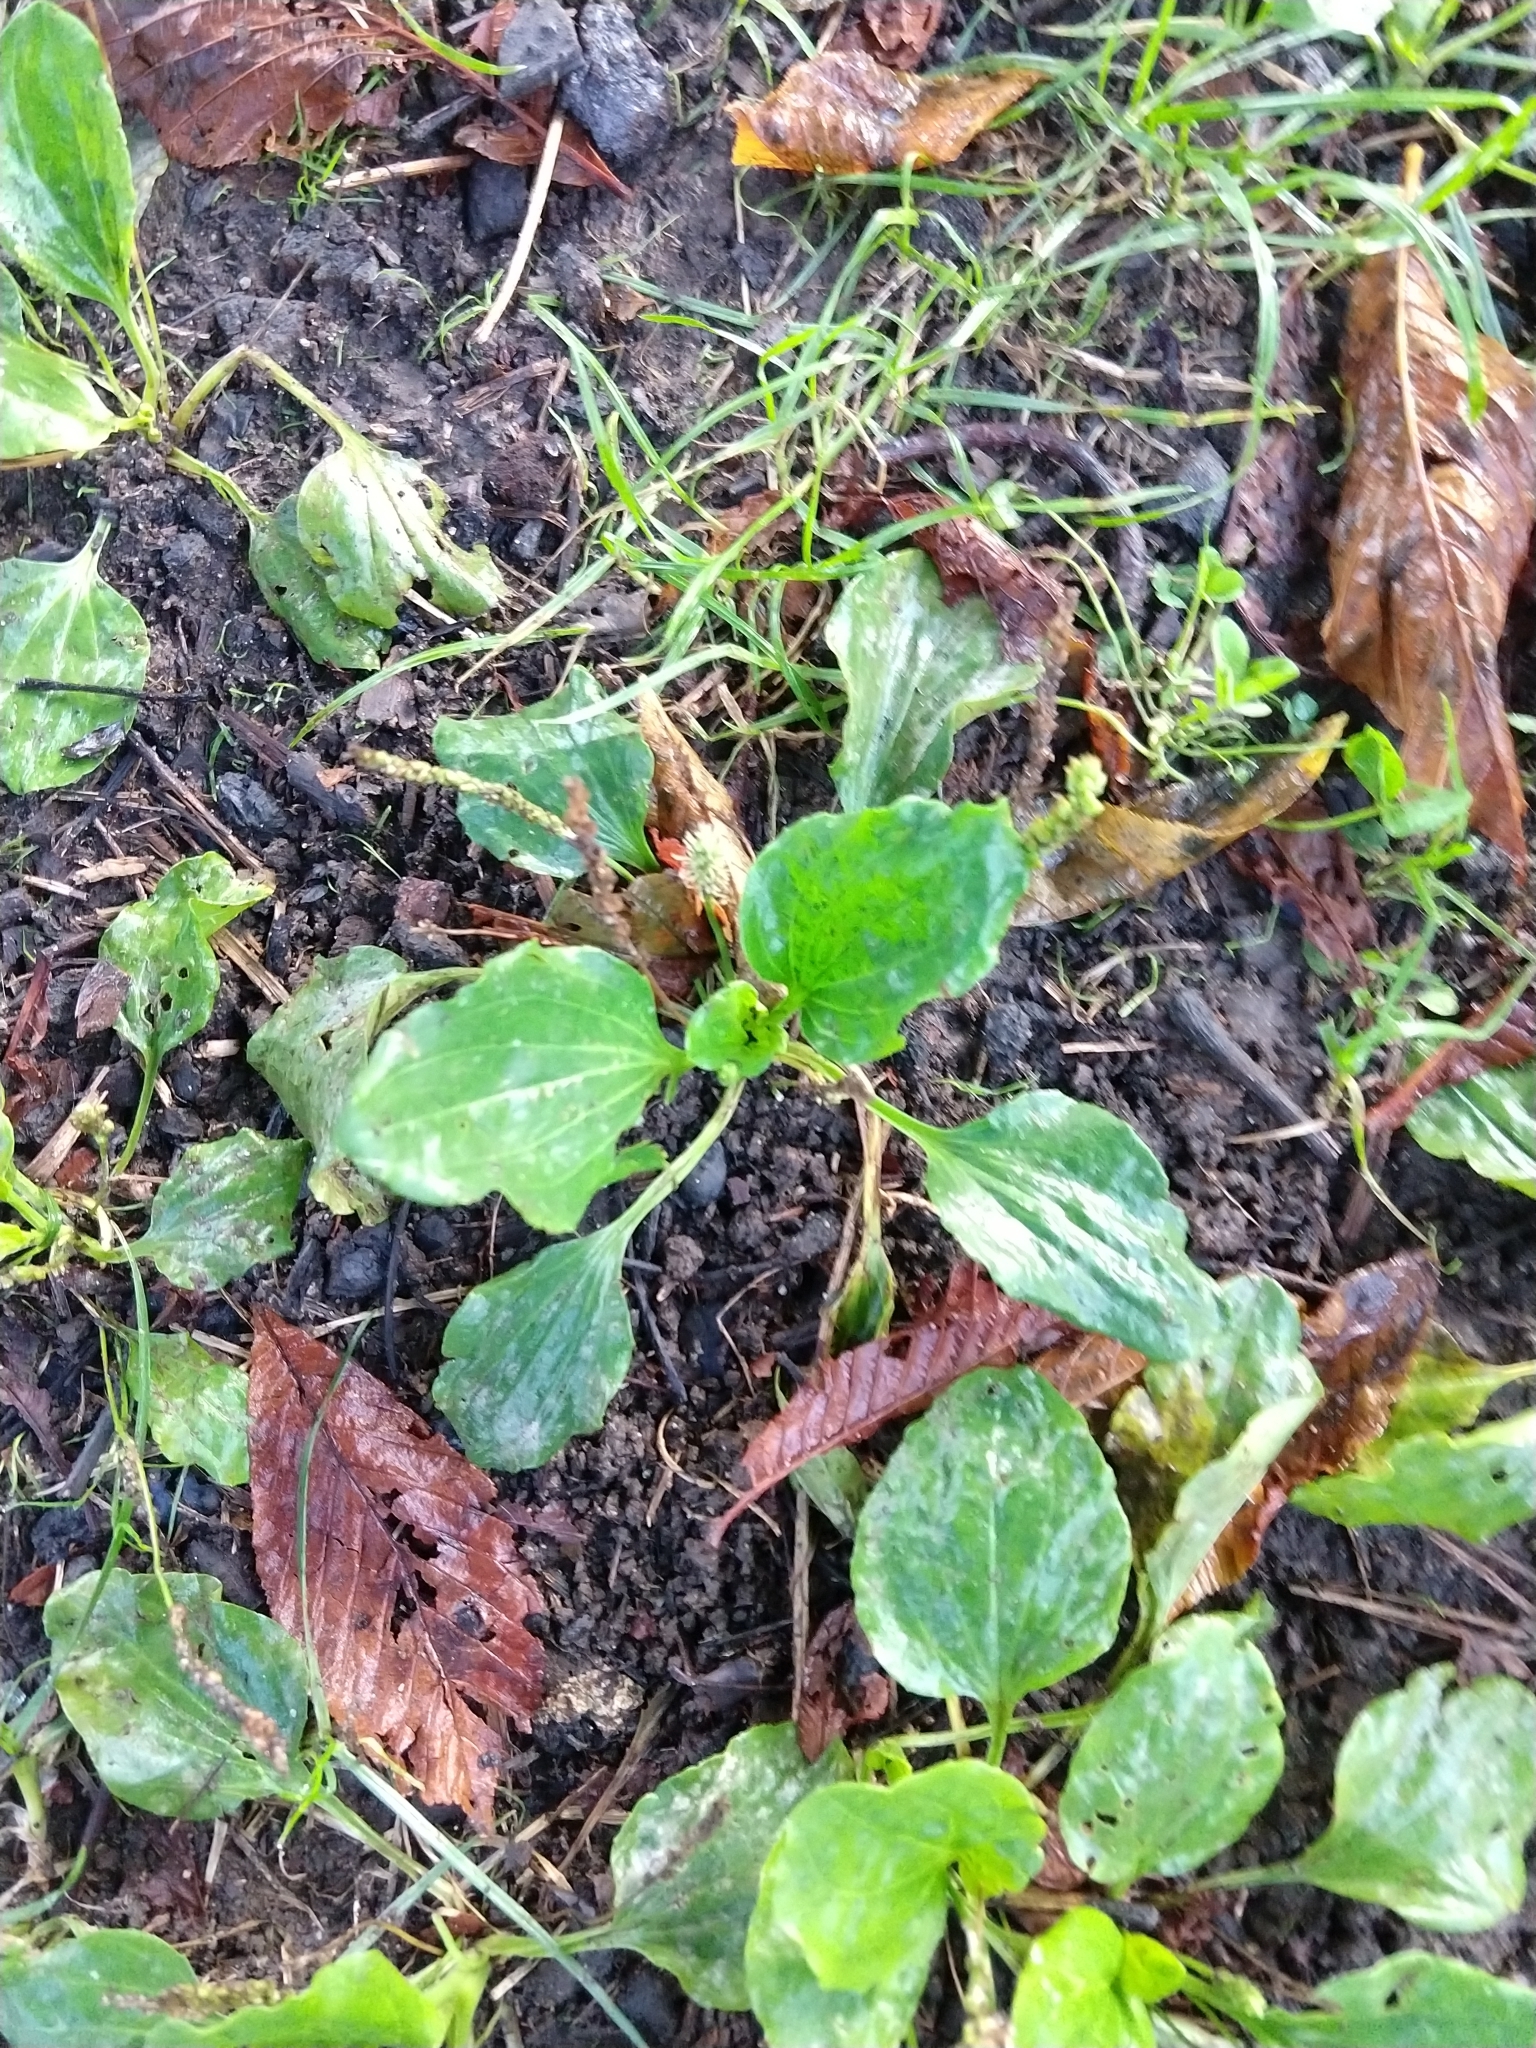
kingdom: Plantae
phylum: Tracheophyta
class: Magnoliopsida
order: Lamiales
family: Plantaginaceae
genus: Plantago
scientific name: Plantago major
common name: Common plantain
